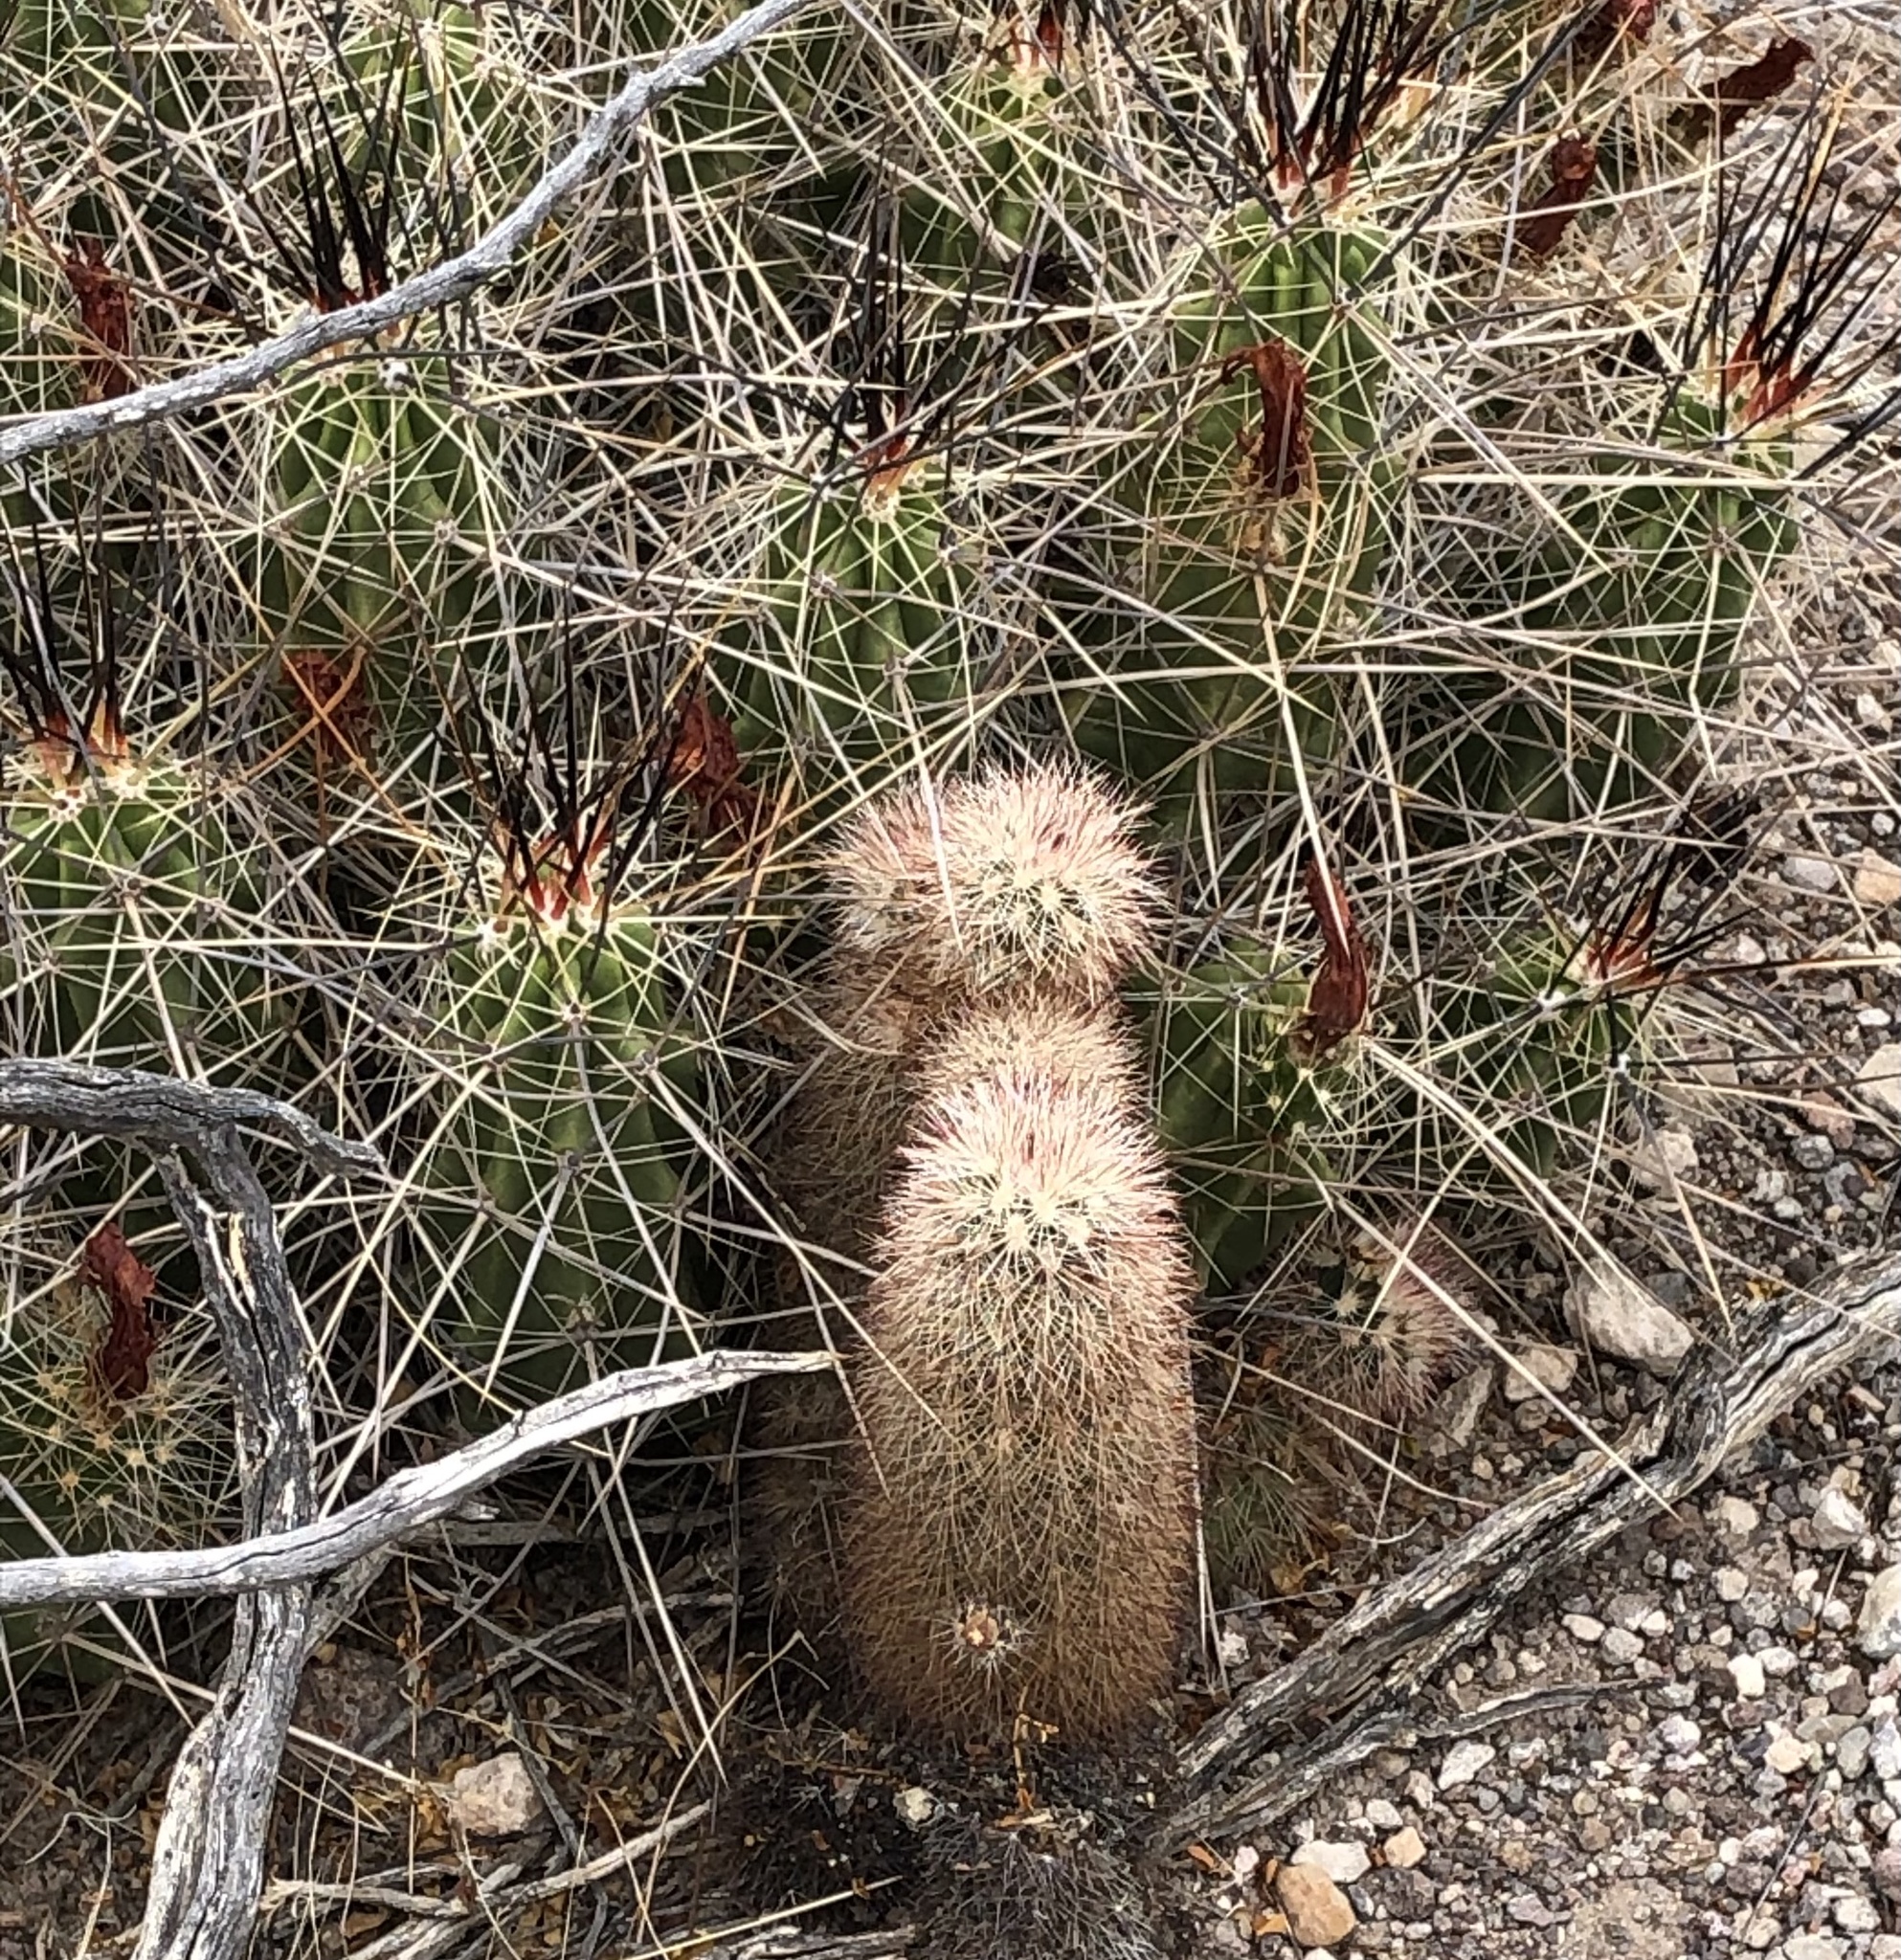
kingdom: Plantae
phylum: Tracheophyta
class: Magnoliopsida
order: Caryophyllales
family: Cactaceae
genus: Echinocereus
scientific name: Echinocereus russanthus
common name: Brownspine hedgehog cactus
